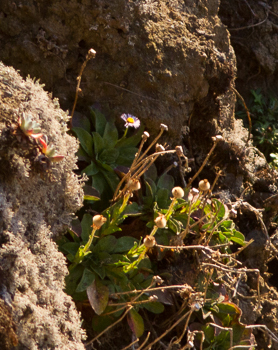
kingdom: Plantae
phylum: Tracheophyta
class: Magnoliopsida
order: Asterales
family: Asteraceae
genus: Erigeron
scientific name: Erigeron glaucus
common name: Seaside daisy
